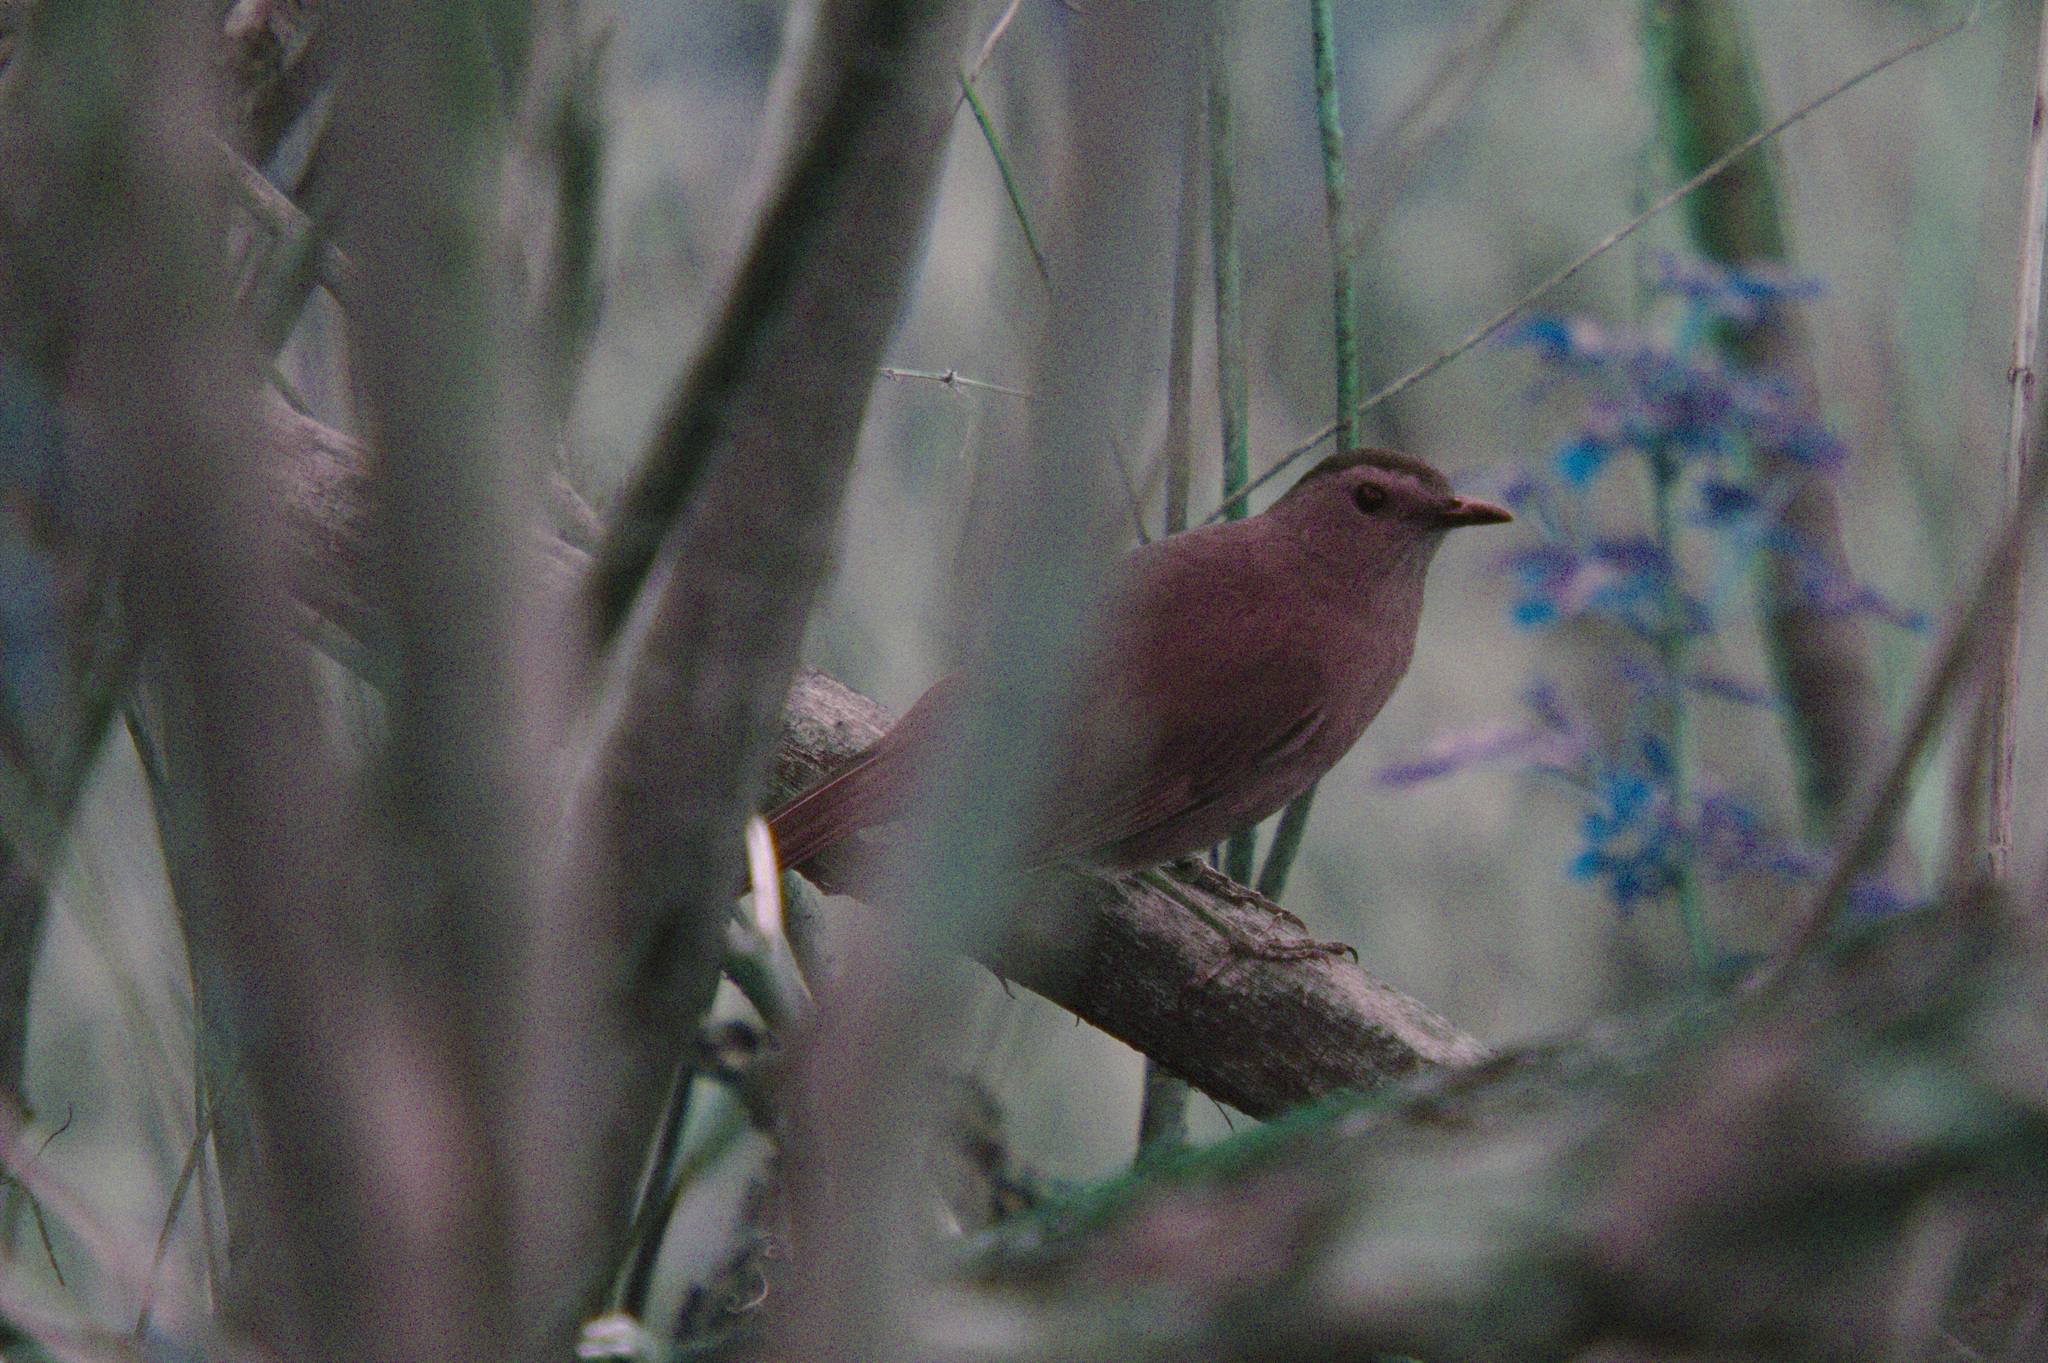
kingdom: Animalia
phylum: Chordata
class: Aves
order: Passeriformes
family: Mimidae
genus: Dumetella
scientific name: Dumetella carolinensis
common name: Gray catbird
